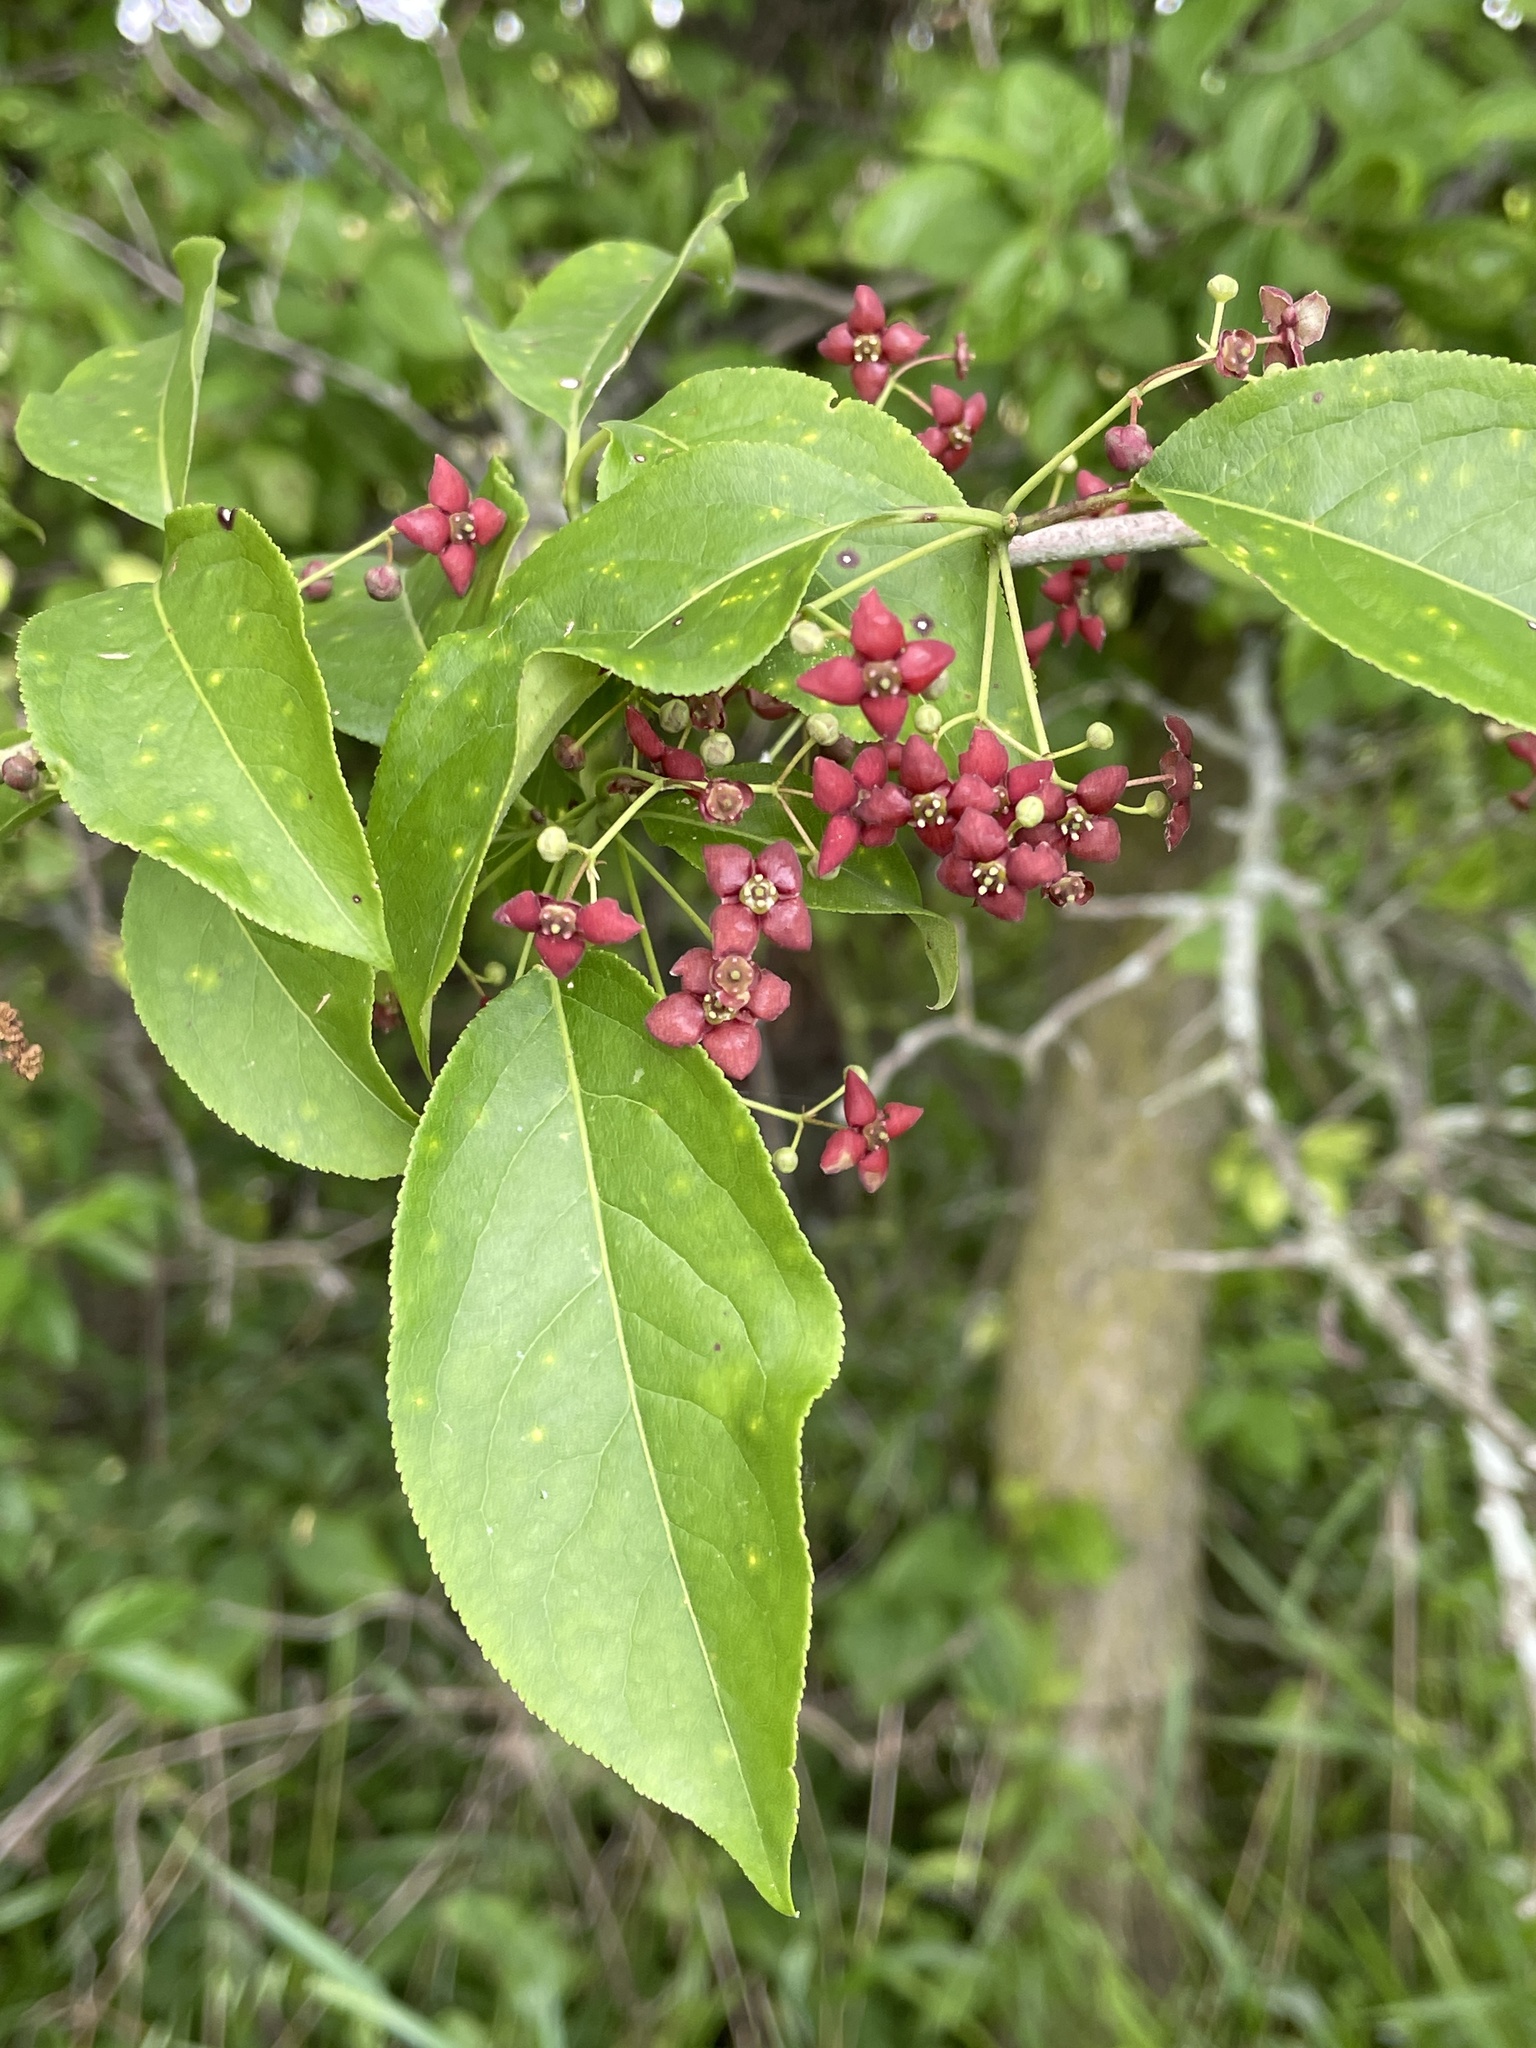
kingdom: Plantae
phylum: Tracheophyta
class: Magnoliopsida
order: Celastrales
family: Celastraceae
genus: Euonymus
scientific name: Euonymus atropurpureus
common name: Eastern wahoo
